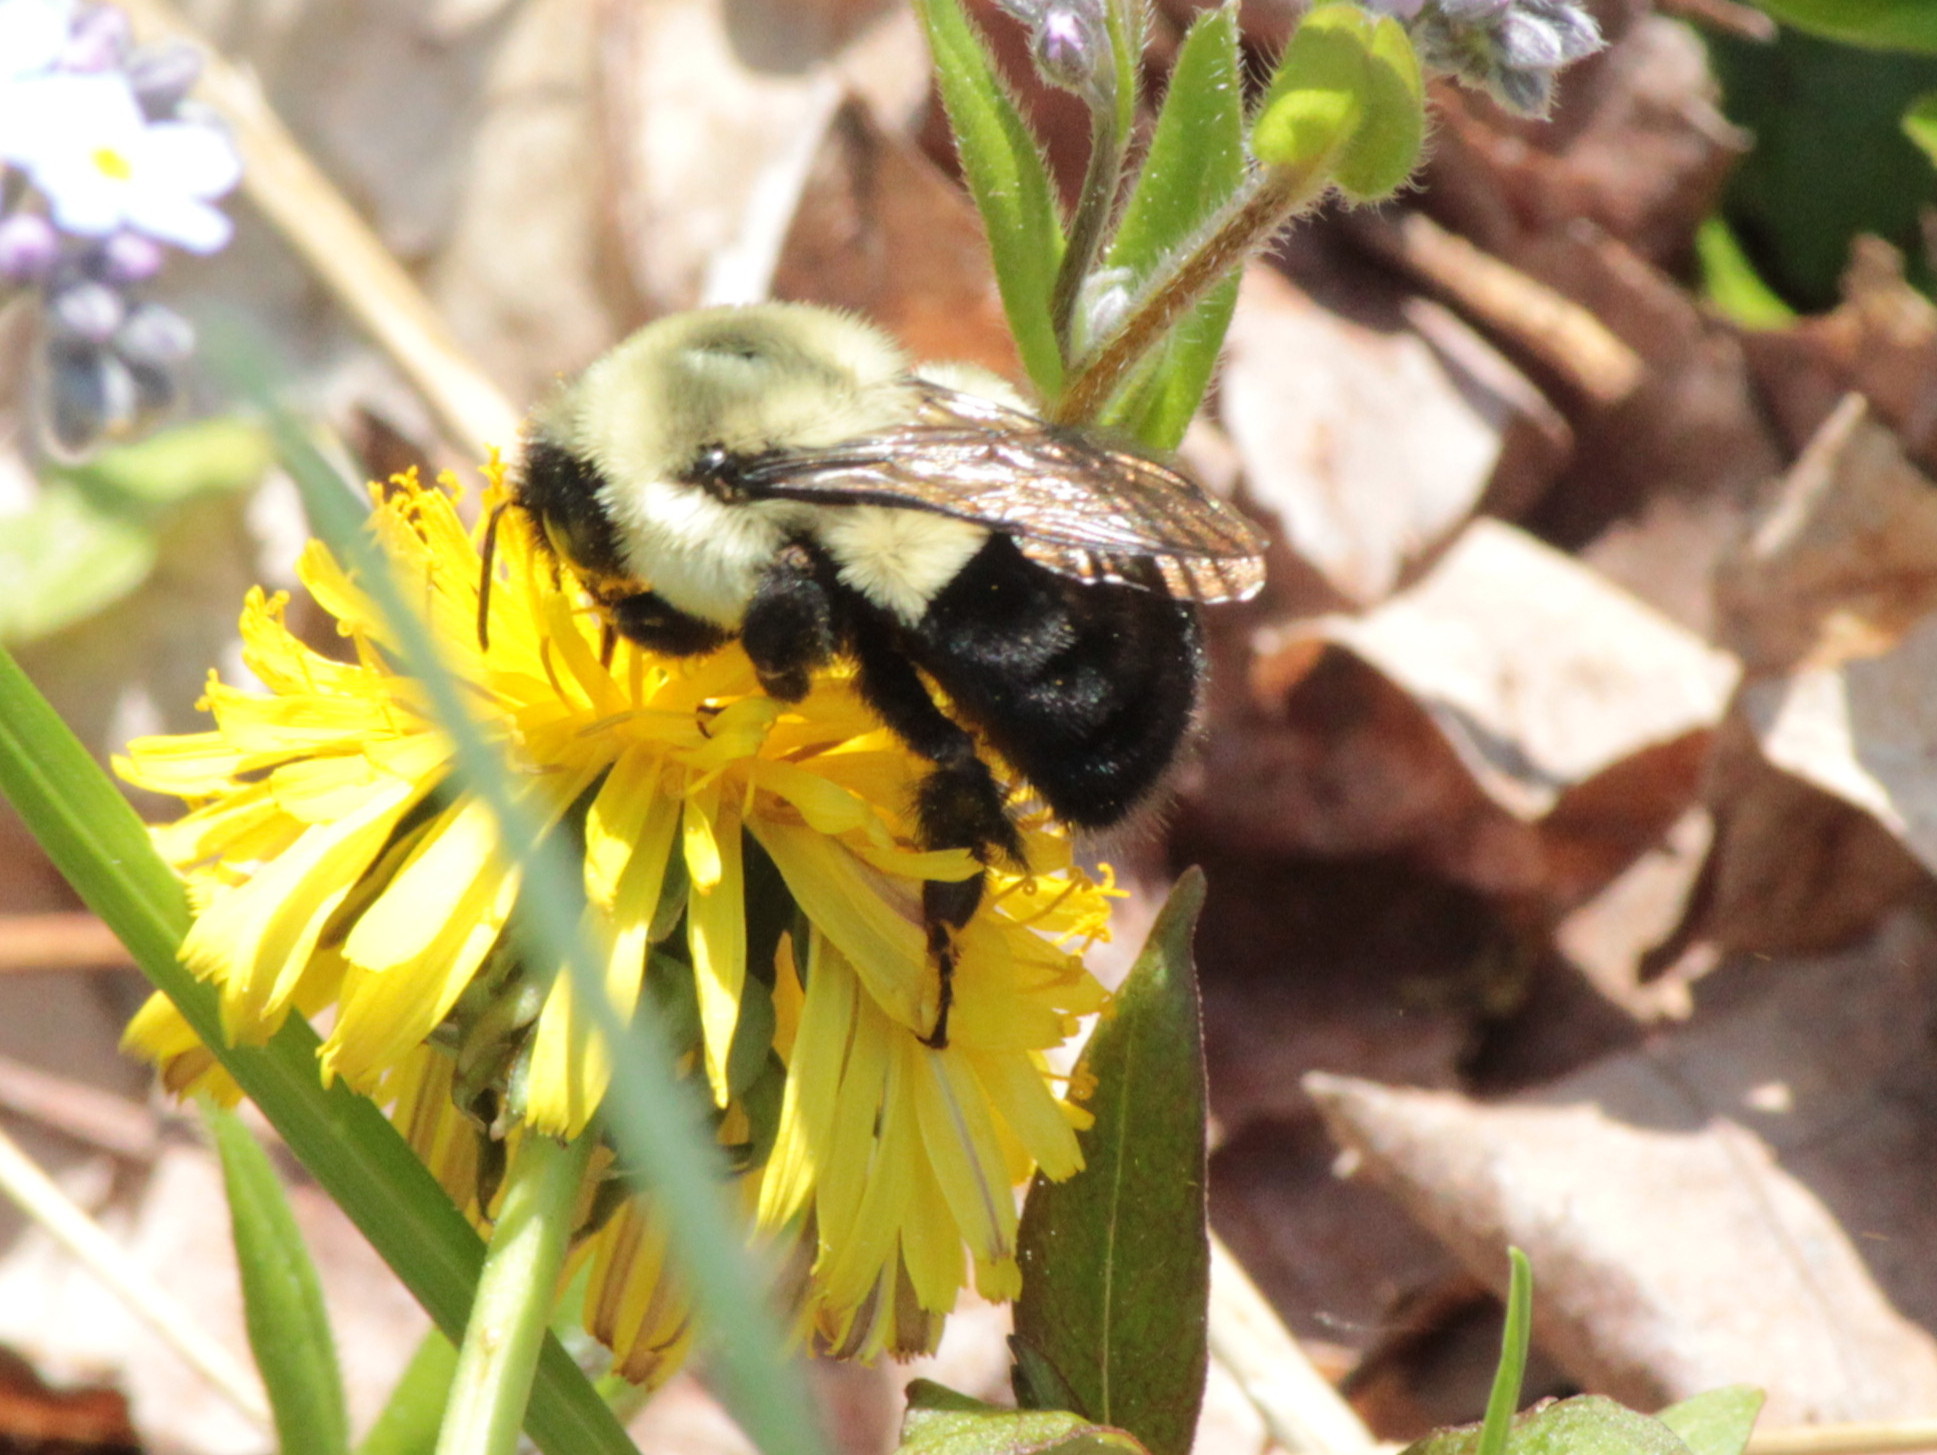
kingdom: Animalia
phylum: Arthropoda
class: Insecta
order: Hymenoptera
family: Apidae
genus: Bombus
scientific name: Bombus impatiens
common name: Common eastern bumble bee
